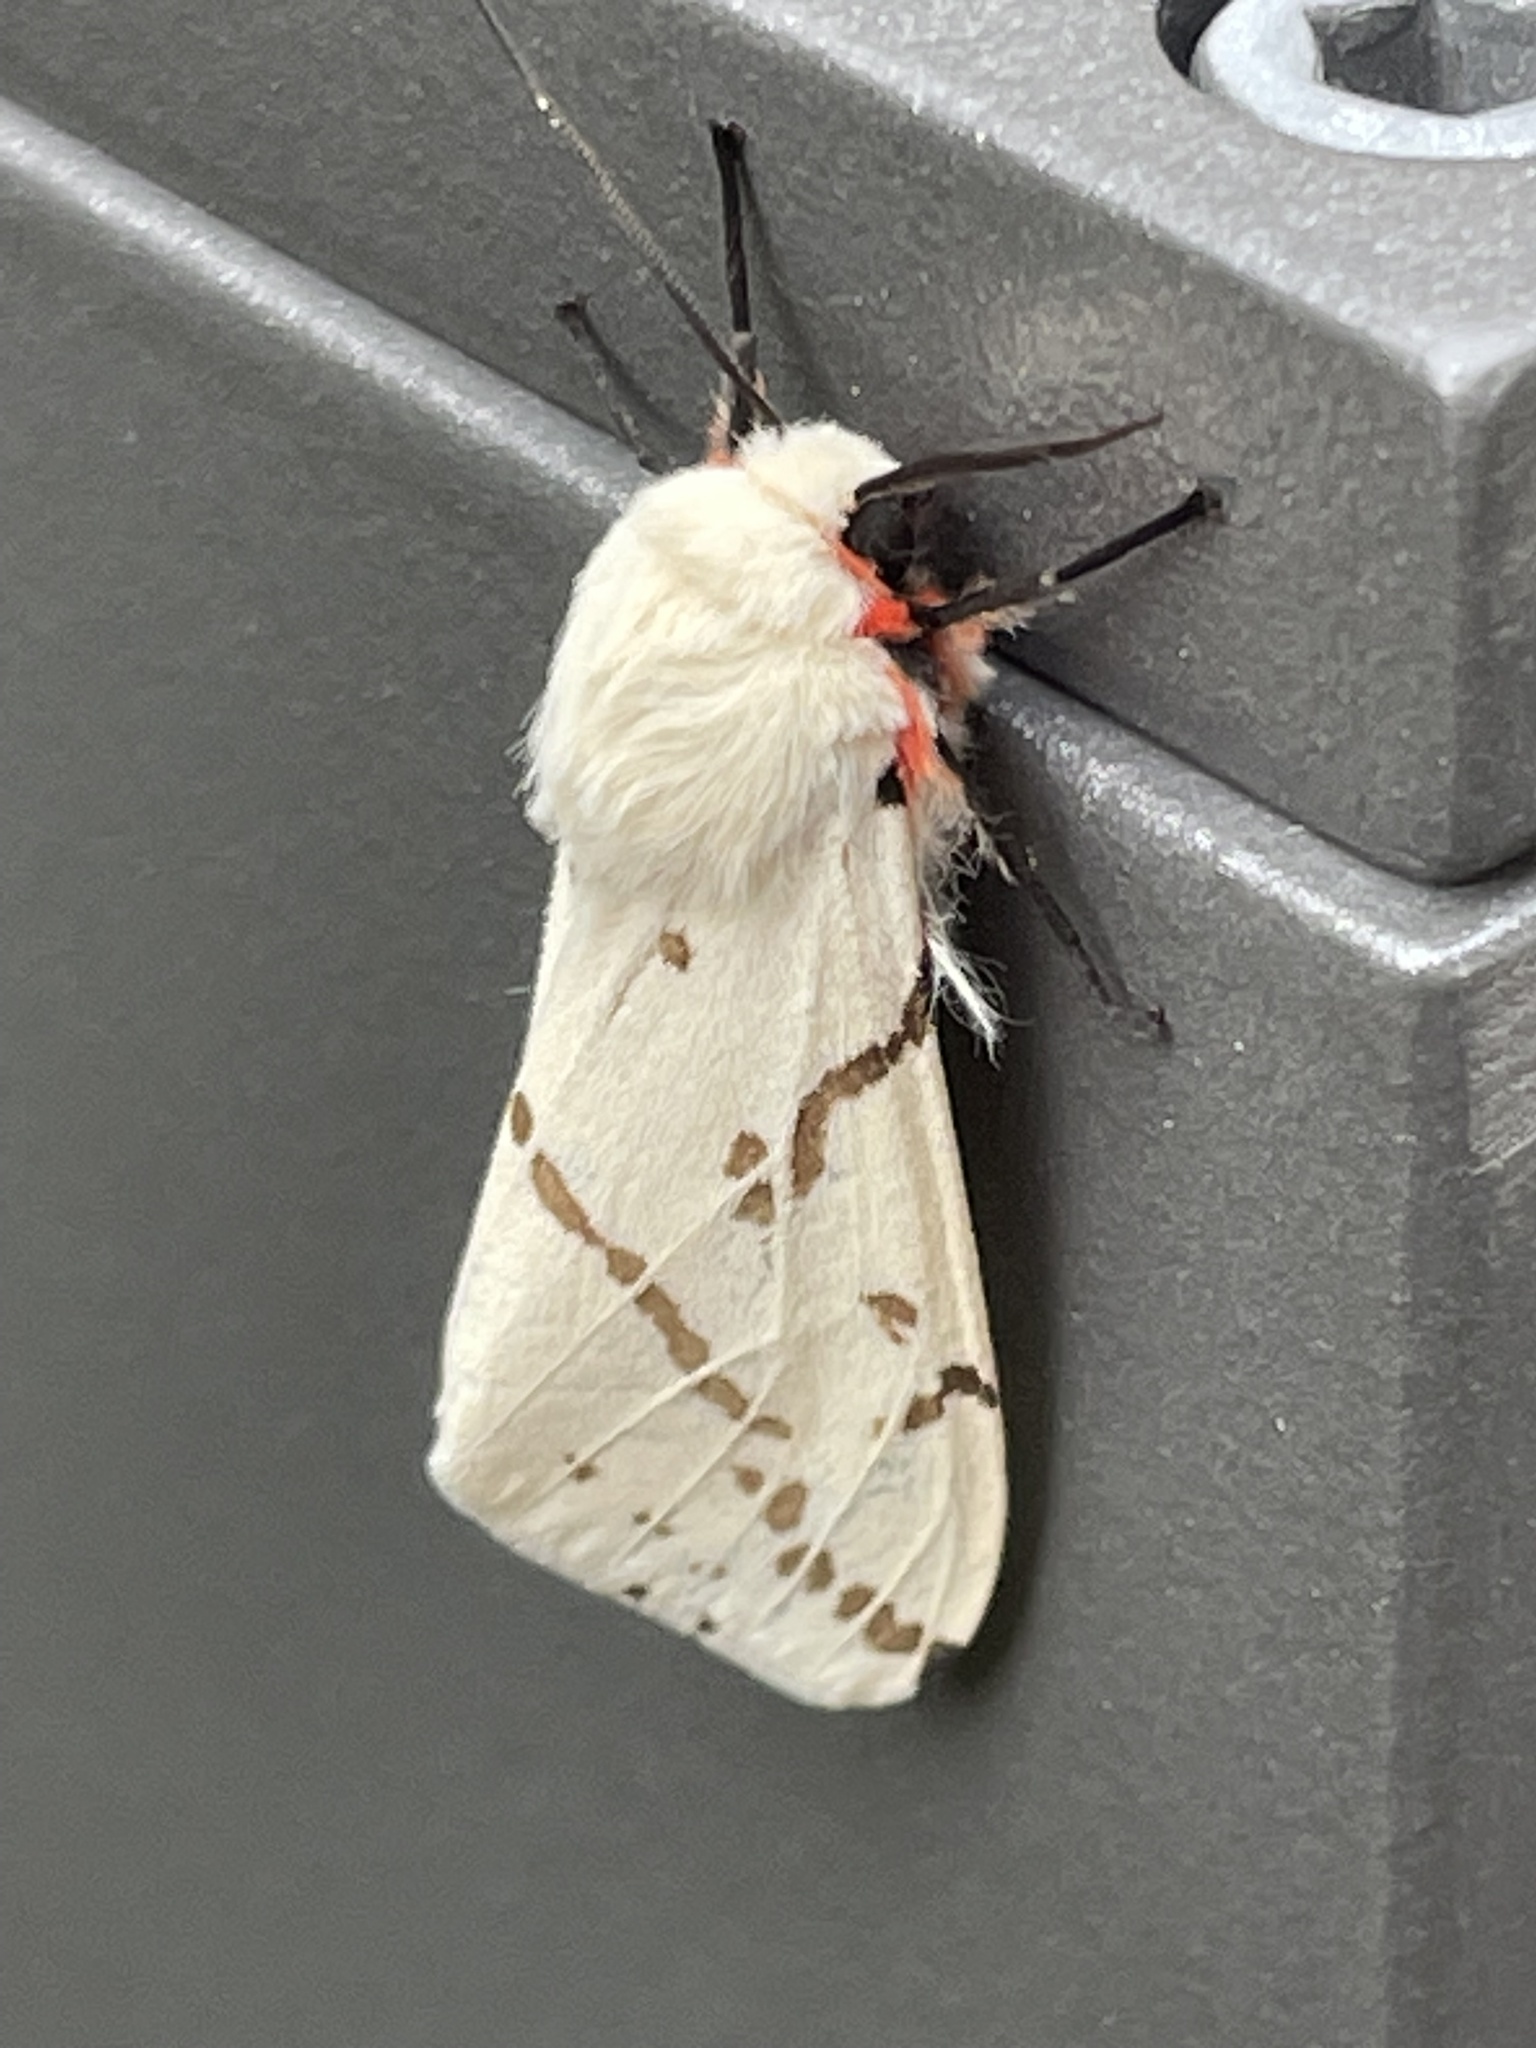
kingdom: Animalia
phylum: Arthropoda
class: Insecta
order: Lepidoptera
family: Erebidae
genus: Ardices
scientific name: Ardices canescens
